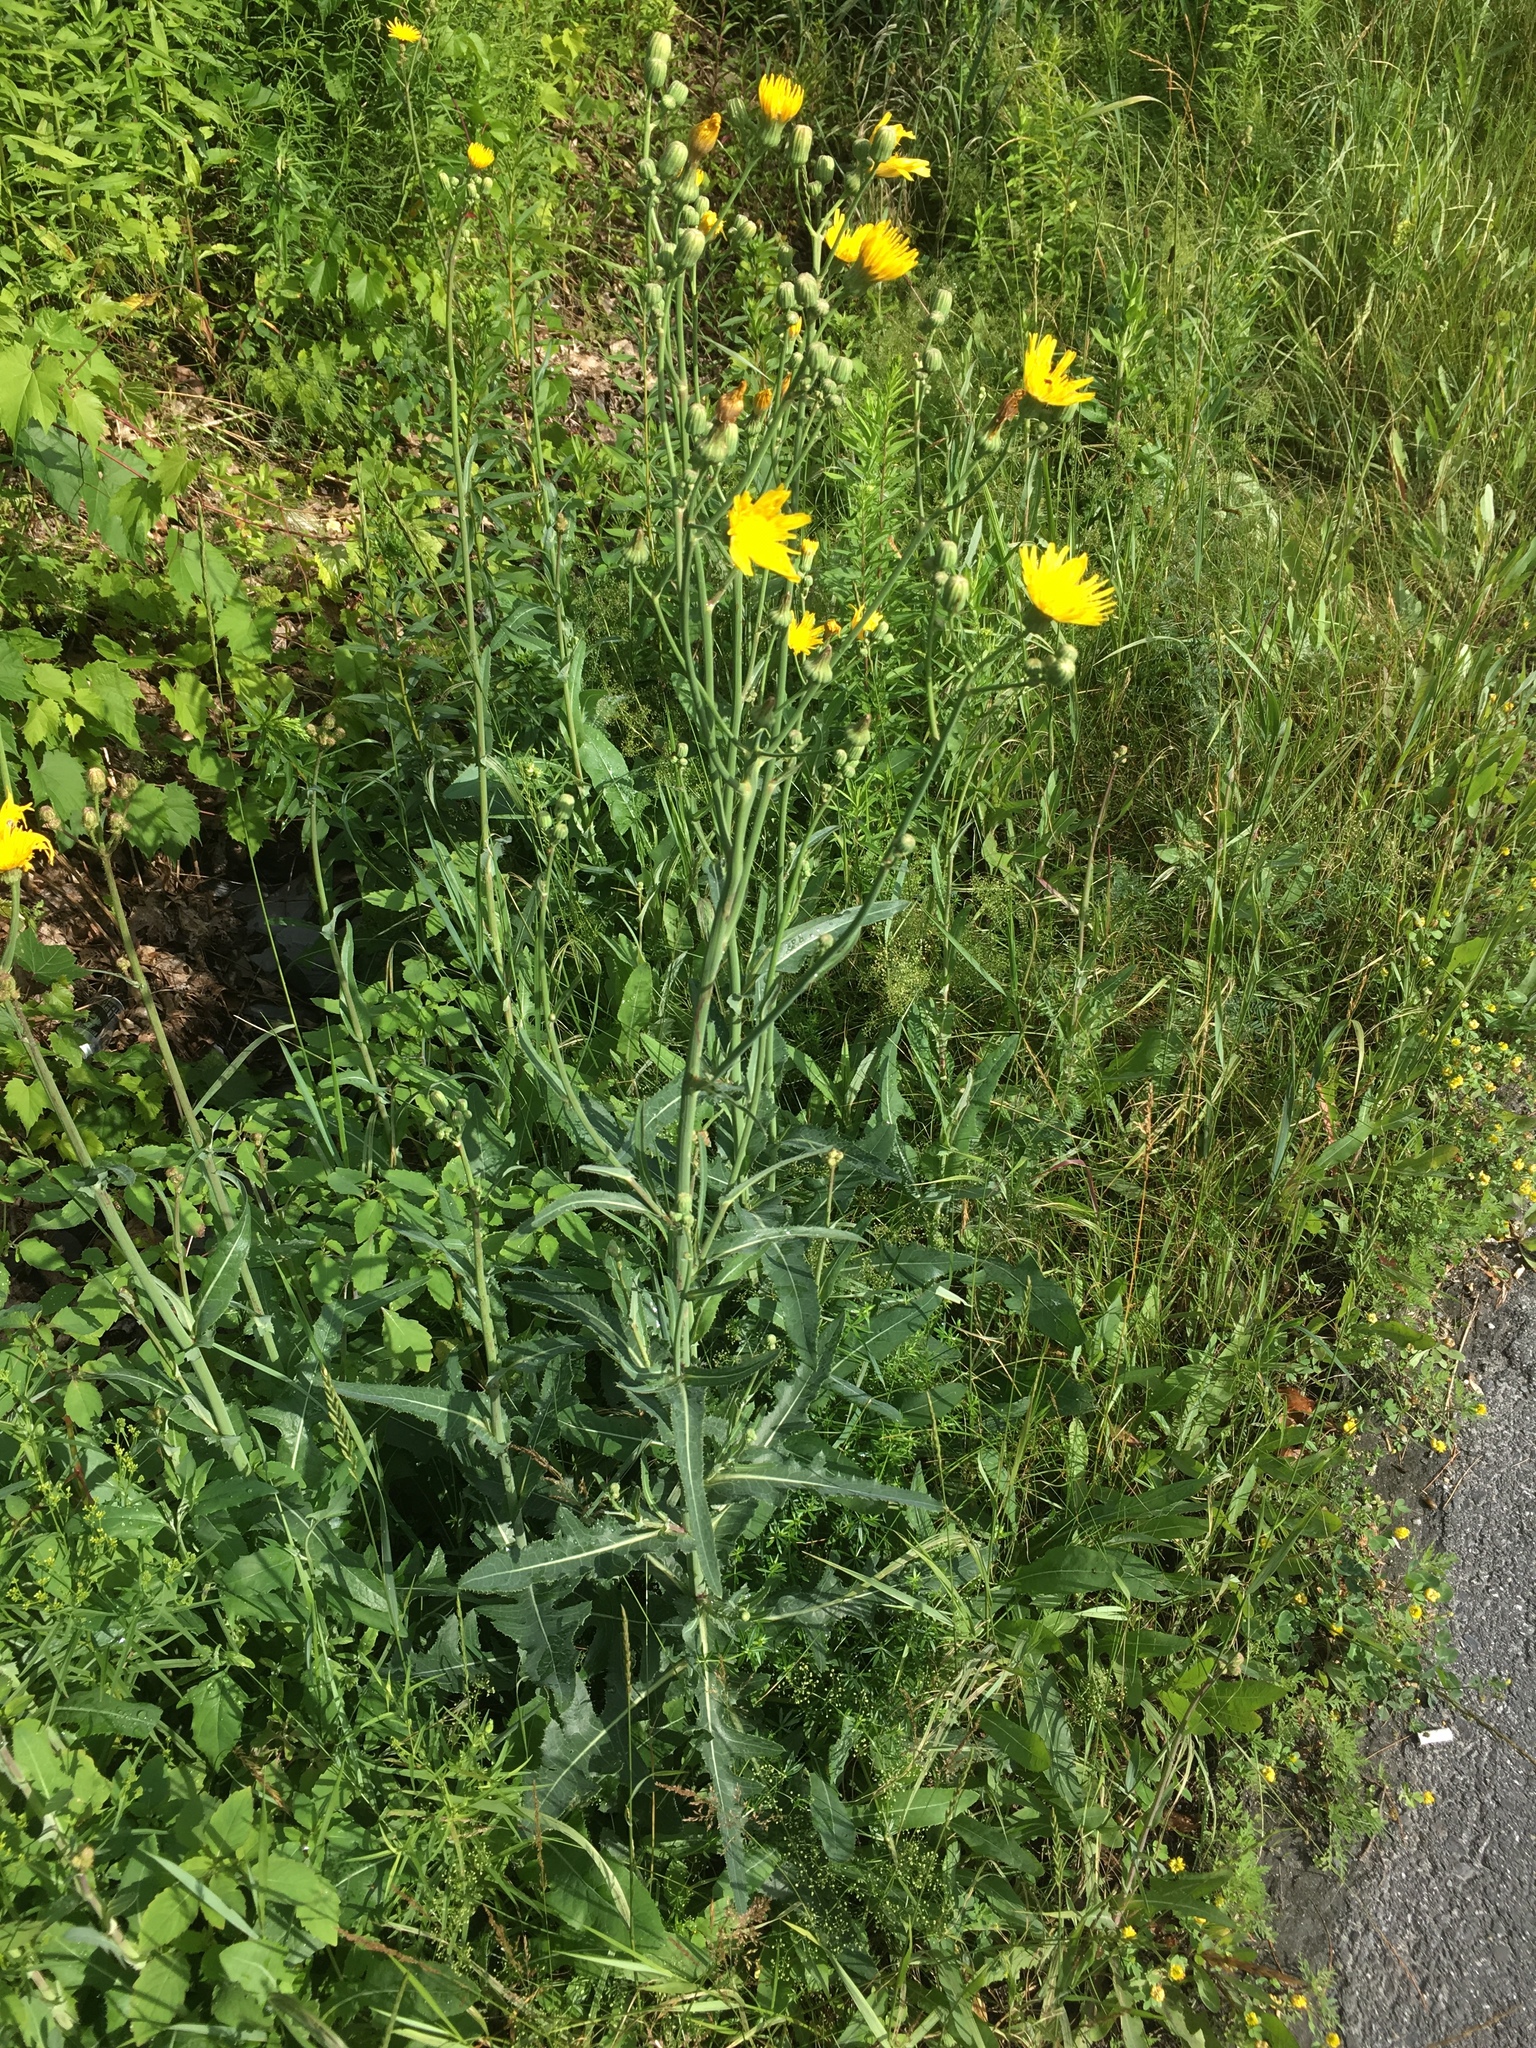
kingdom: Plantae
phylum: Tracheophyta
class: Magnoliopsida
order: Asterales
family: Asteraceae
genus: Sonchus
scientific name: Sonchus arvensis
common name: Perennial sow-thistle
